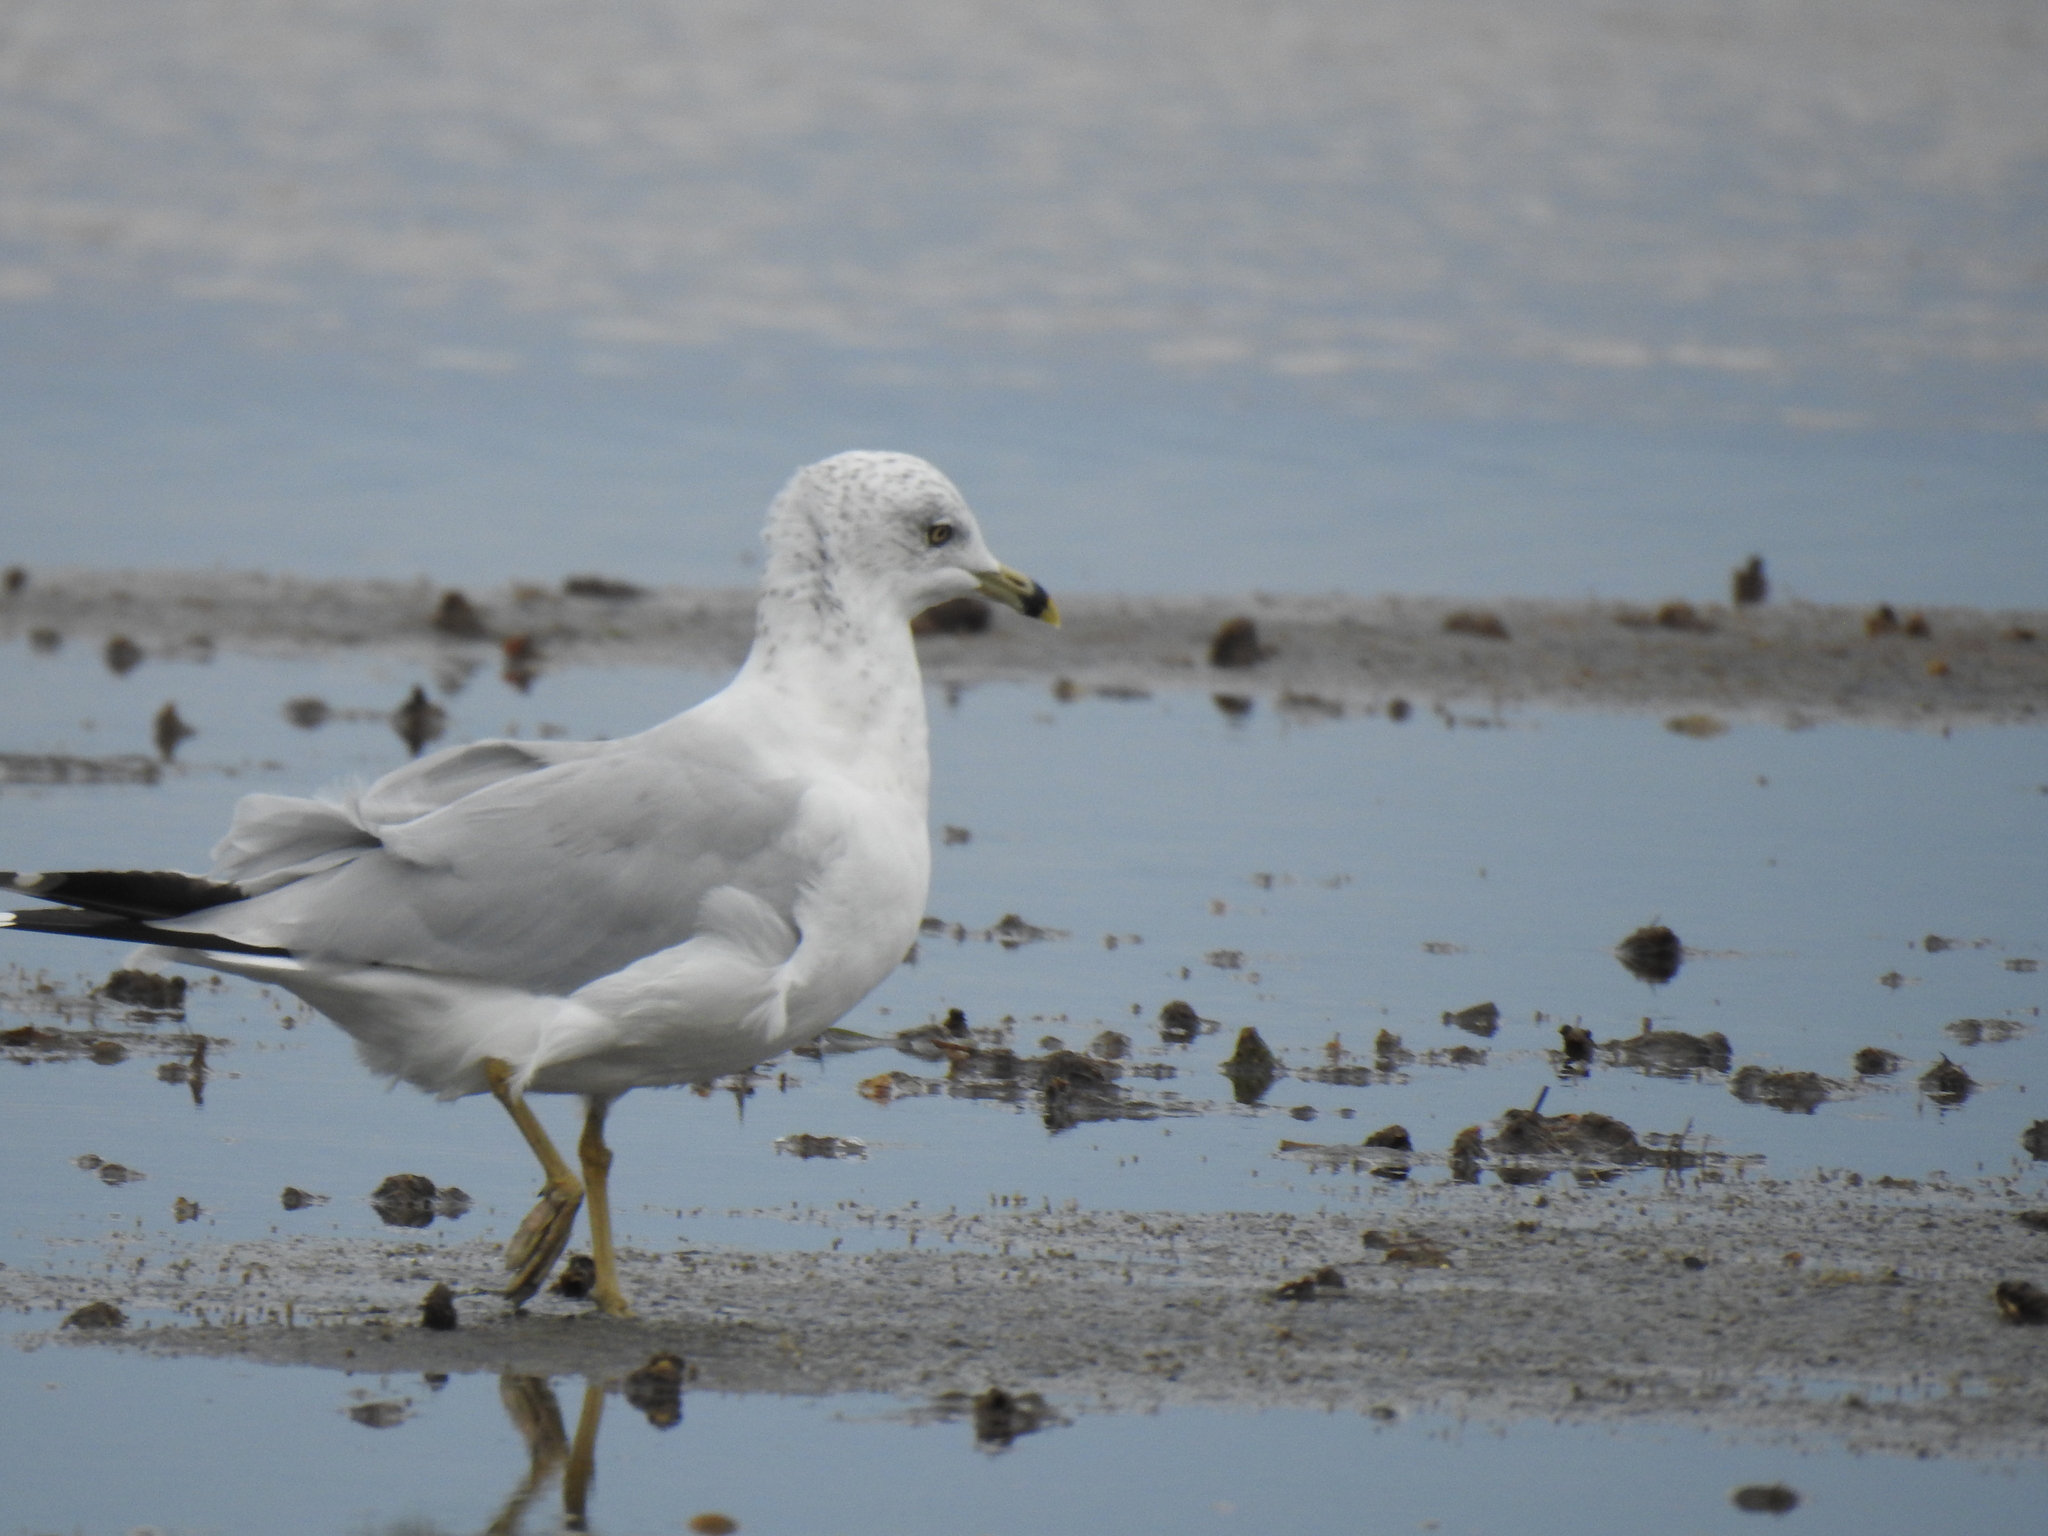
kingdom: Animalia
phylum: Chordata
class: Aves
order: Charadriiformes
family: Laridae
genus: Larus
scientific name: Larus delawarensis
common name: Ring-billed gull
